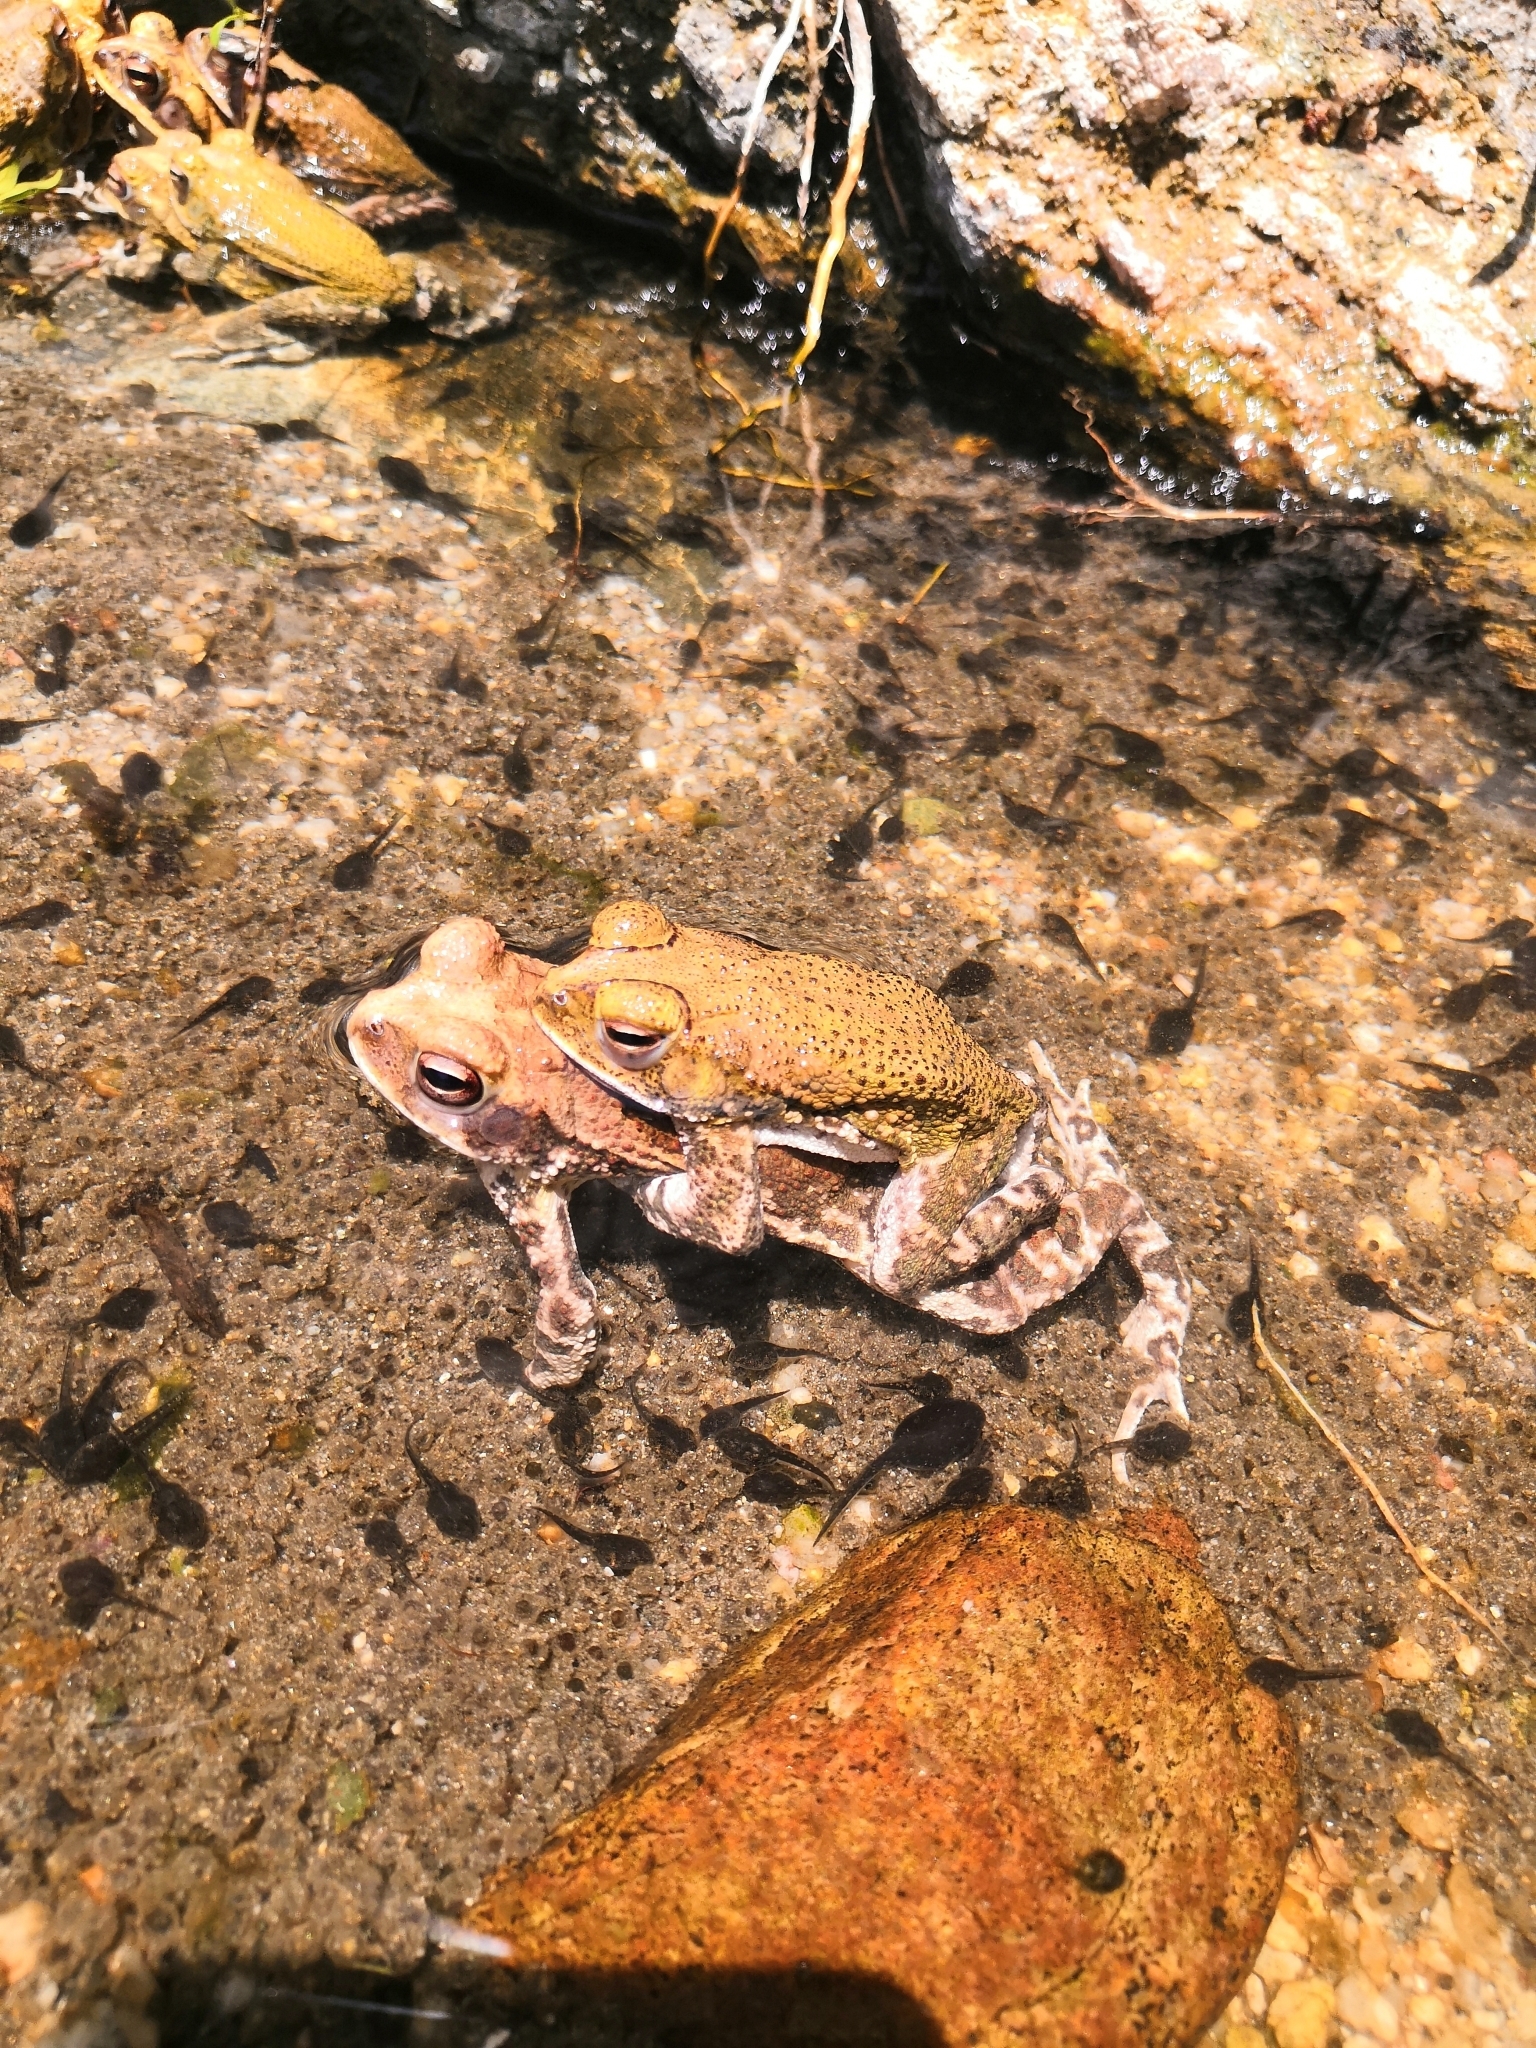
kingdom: Animalia
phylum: Chordata
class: Amphibia
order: Anura
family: Bufonidae
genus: Incilius
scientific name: Incilius marmoreus
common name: Marbled toad
